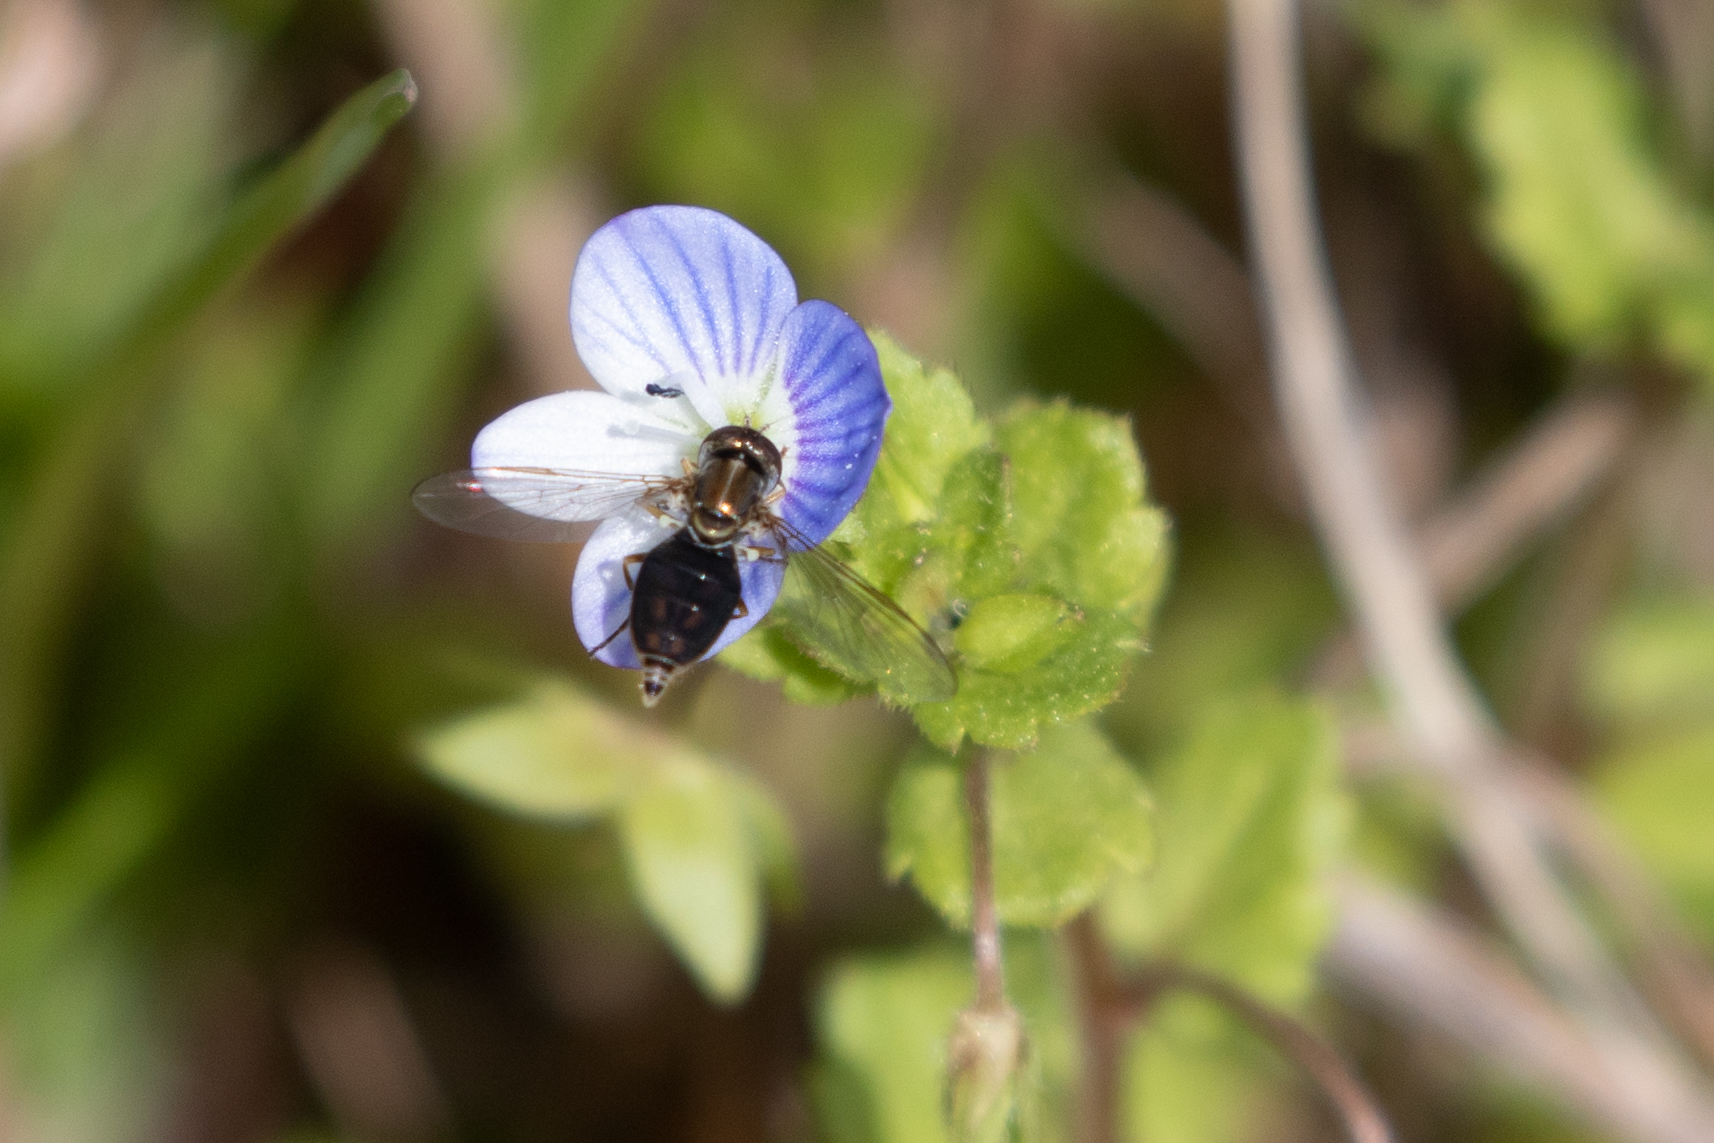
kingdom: Animalia
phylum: Arthropoda
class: Insecta
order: Diptera
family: Syrphidae
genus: Toxomerus
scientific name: Toxomerus marginatus
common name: Syrphid fly
